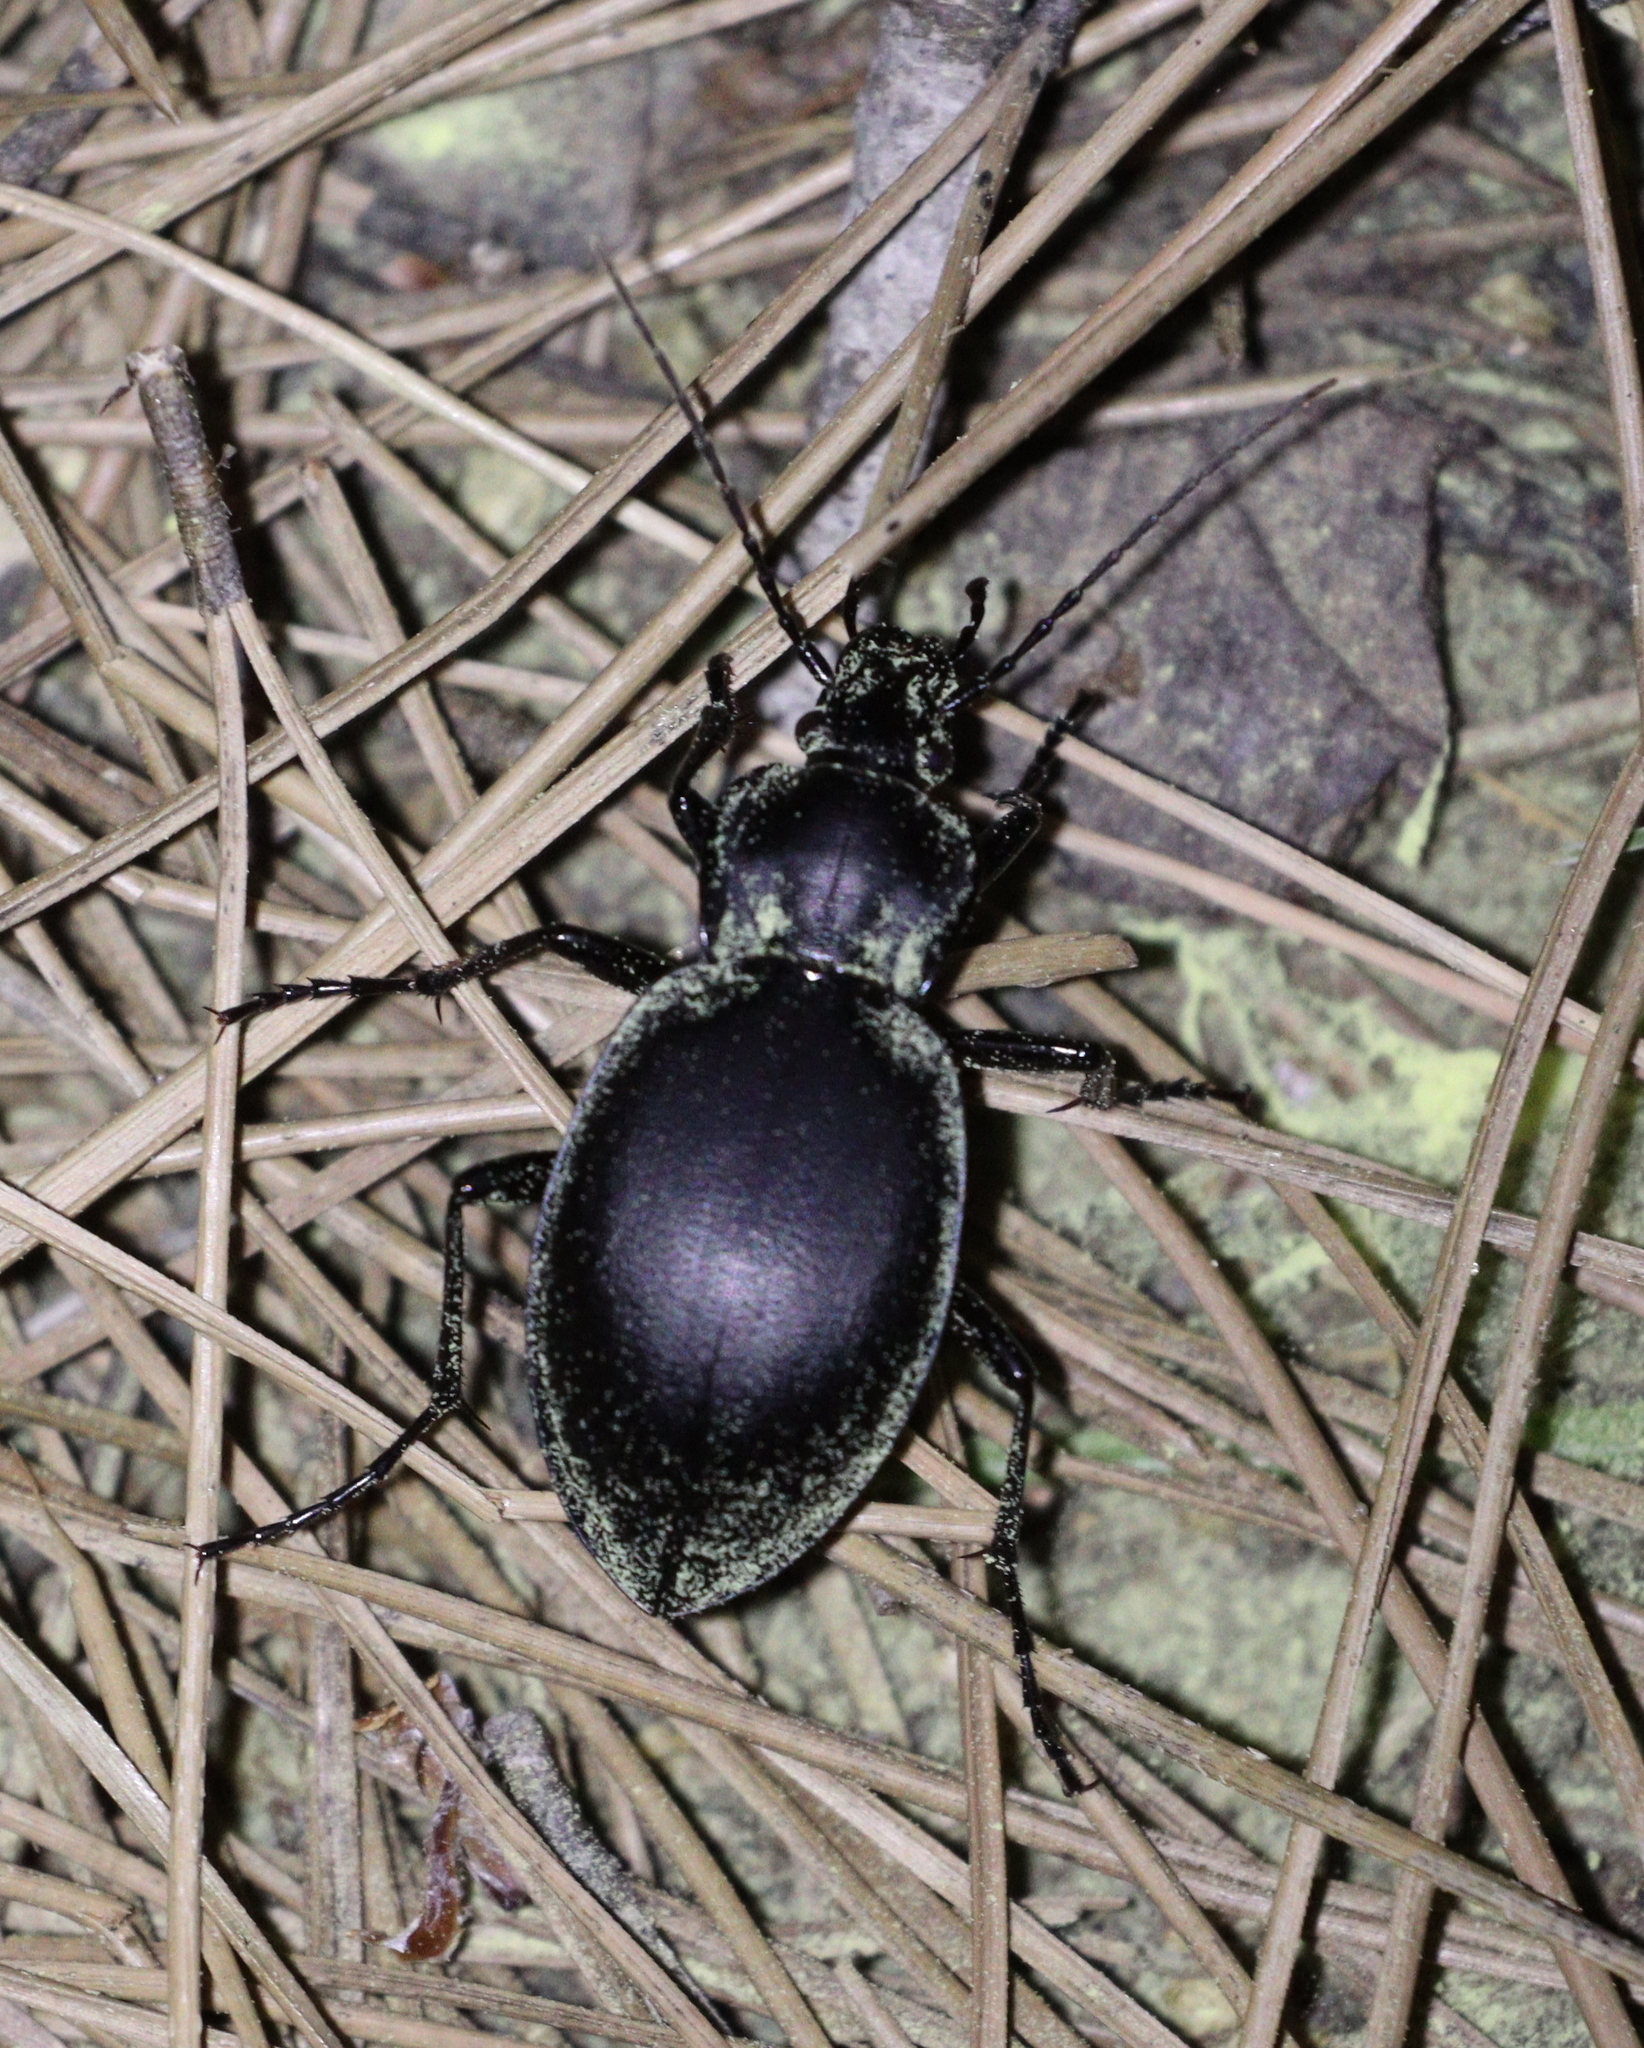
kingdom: Animalia
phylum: Arthropoda
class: Insecta
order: Coleoptera
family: Carabidae
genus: Carabus
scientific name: Carabus anatolicus
